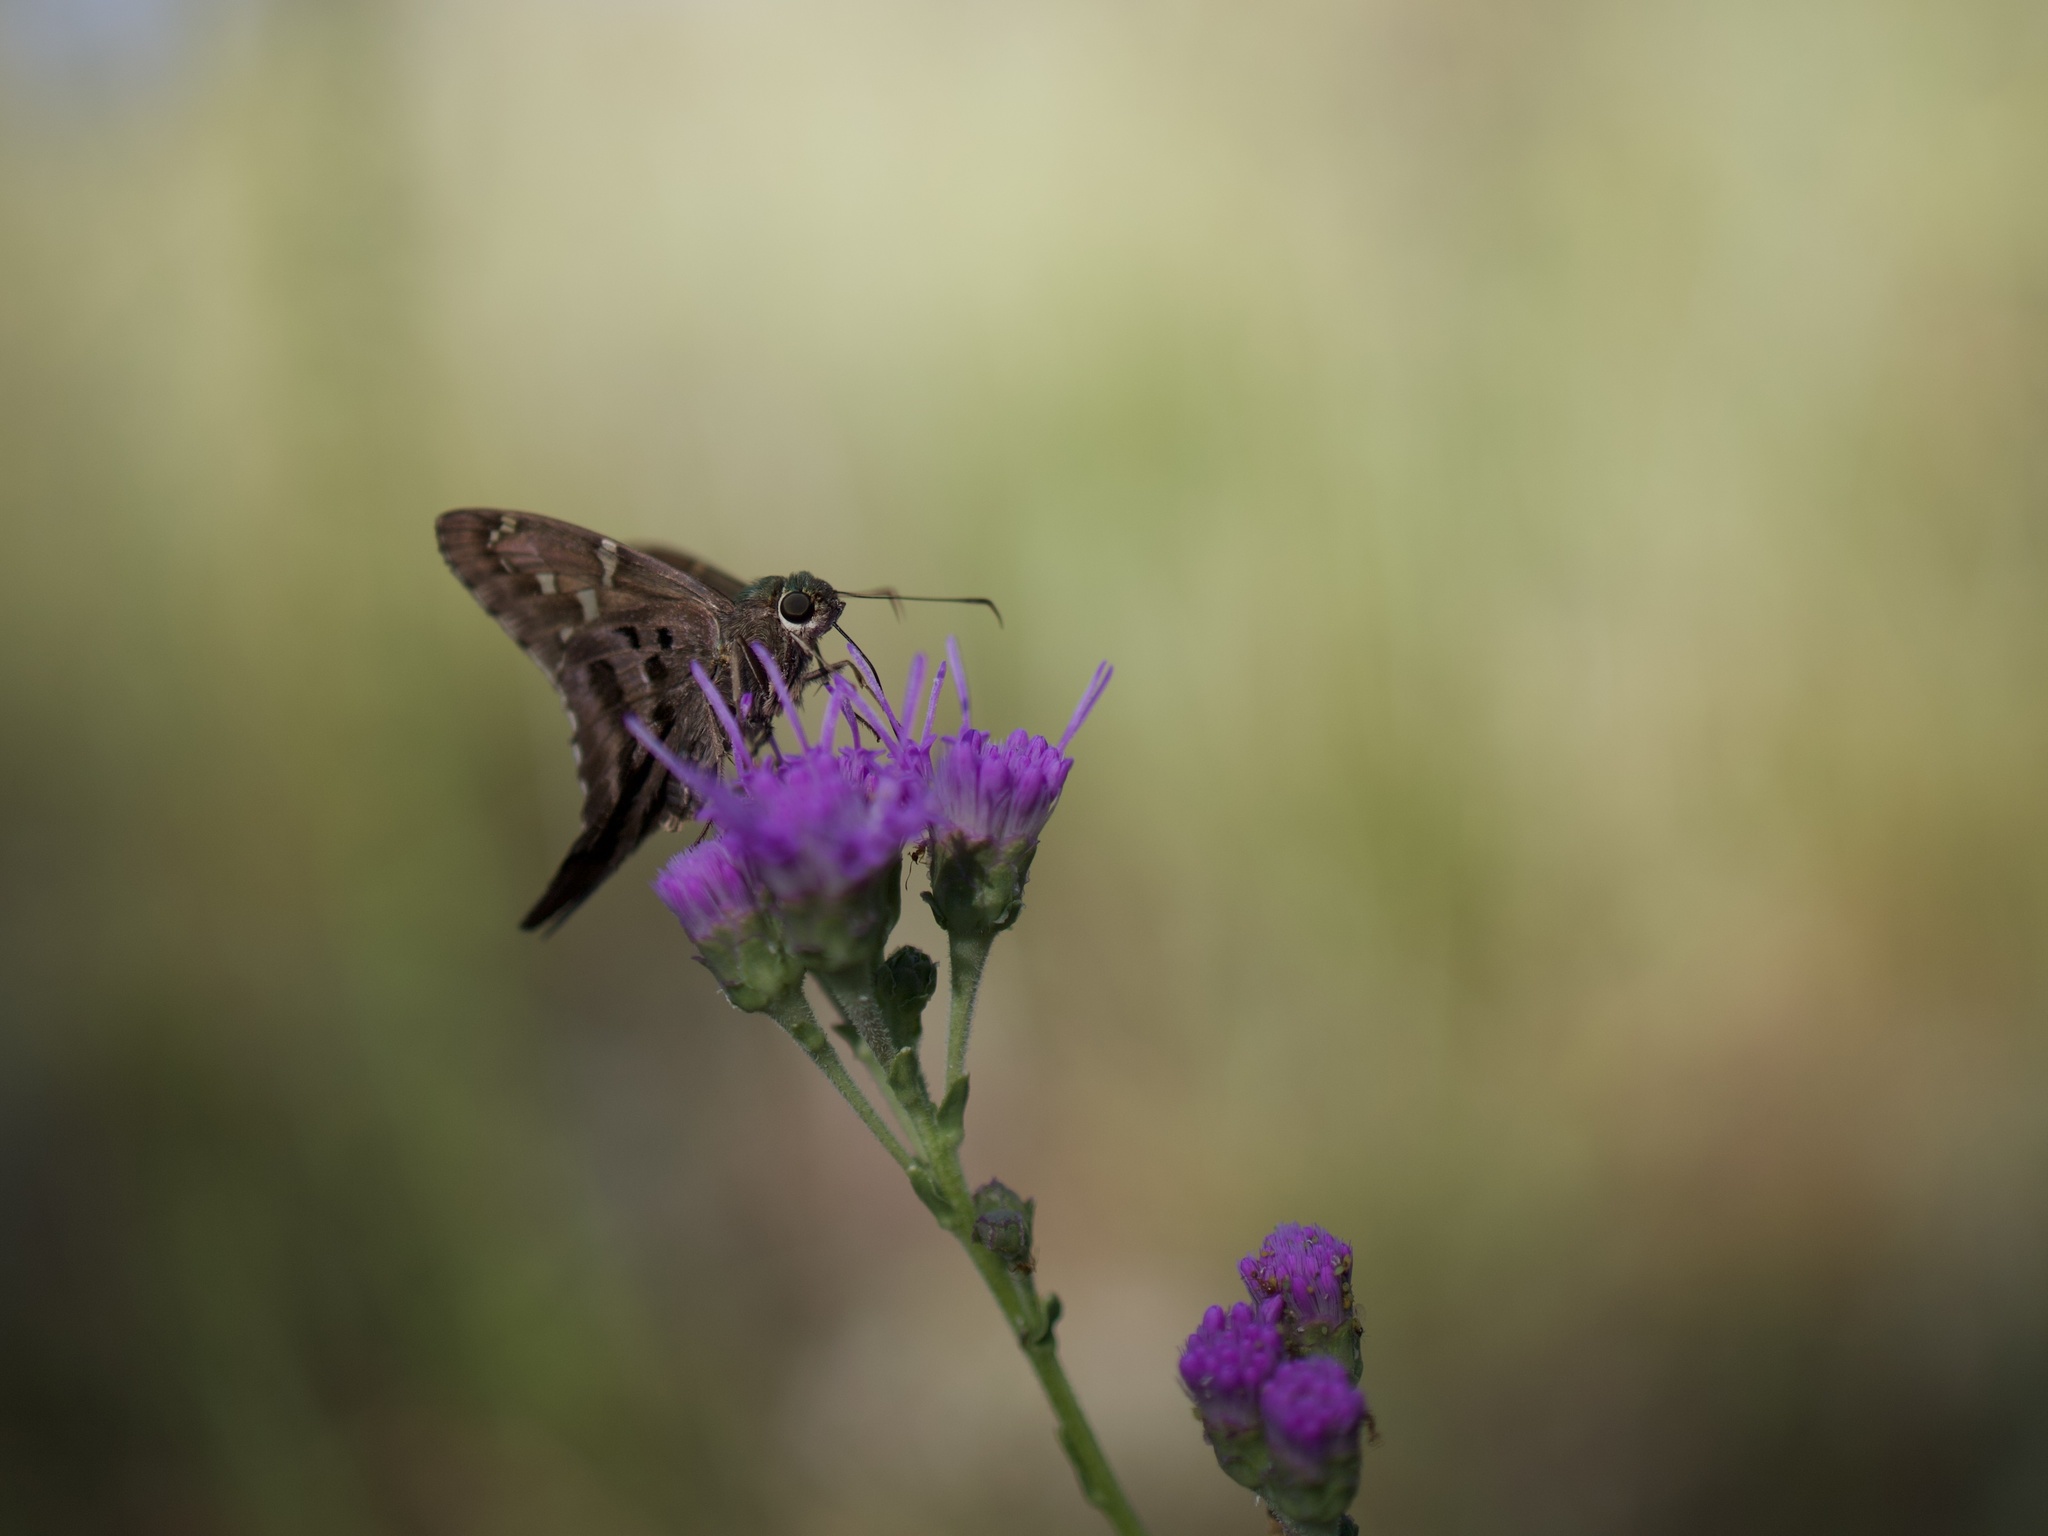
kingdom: Animalia
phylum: Arthropoda
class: Insecta
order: Lepidoptera
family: Hesperiidae
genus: Urbanus
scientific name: Urbanus proteus
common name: Long-tailed skipper
